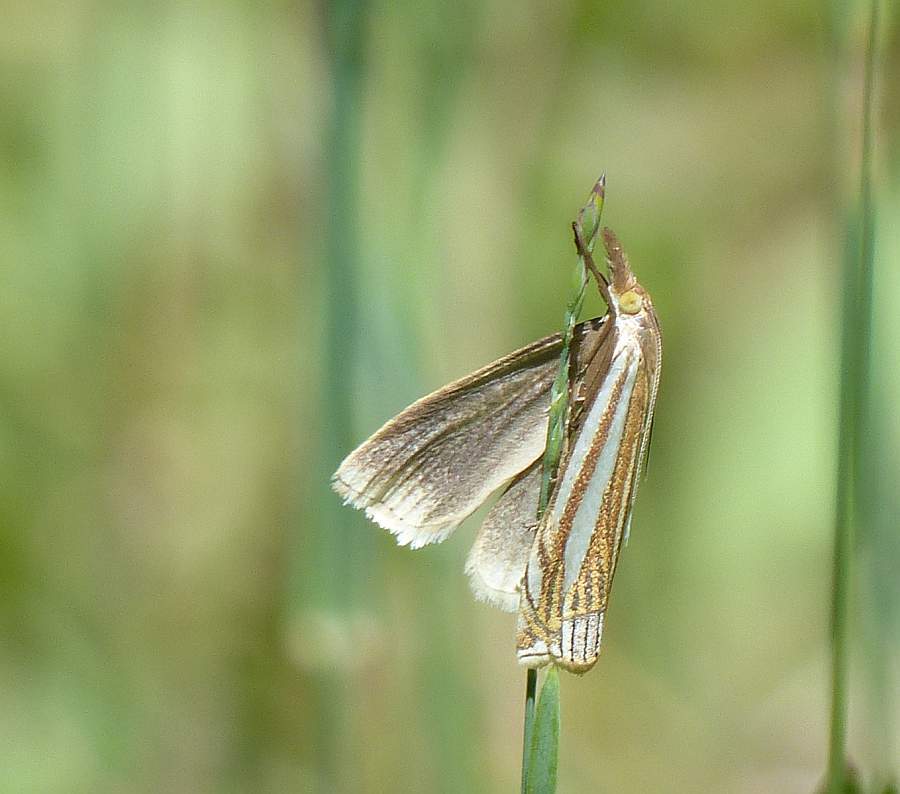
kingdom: Animalia
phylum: Arthropoda
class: Insecta
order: Lepidoptera
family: Crambidae
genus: Crambus
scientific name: Crambus laqueatellus
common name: Eastern grass-veneer
